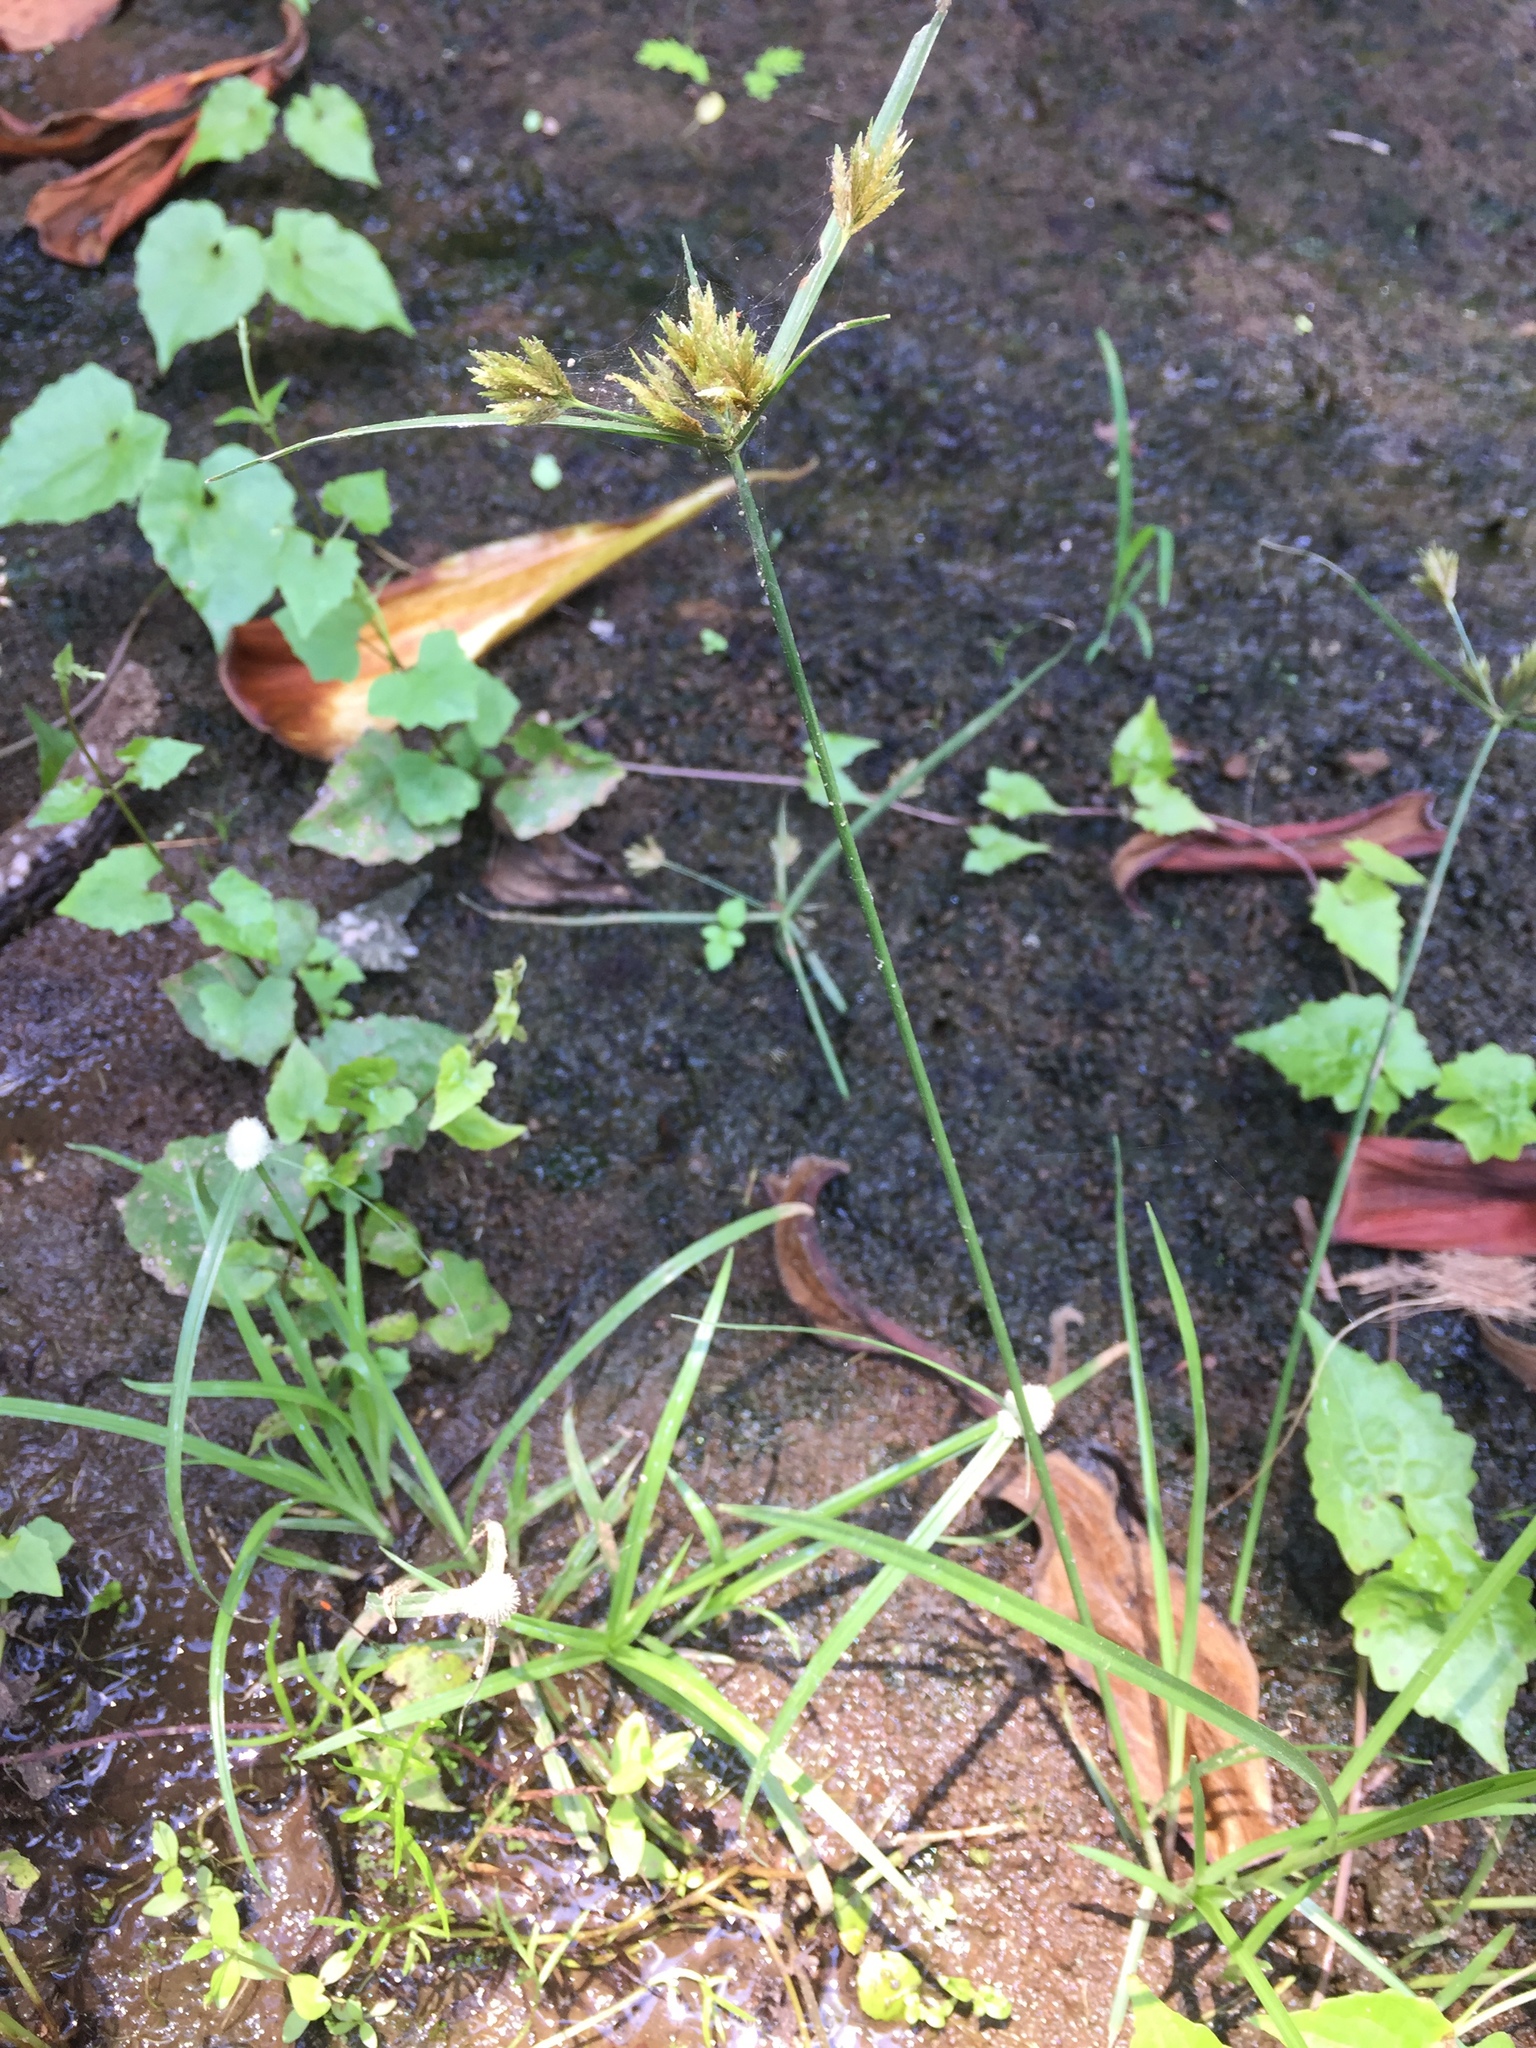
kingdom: Plantae
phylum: Tracheophyta
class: Liliopsida
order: Poales
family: Cyperaceae
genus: Cyperus
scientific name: Cyperus polystachyos
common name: Bunchy flat sedge
